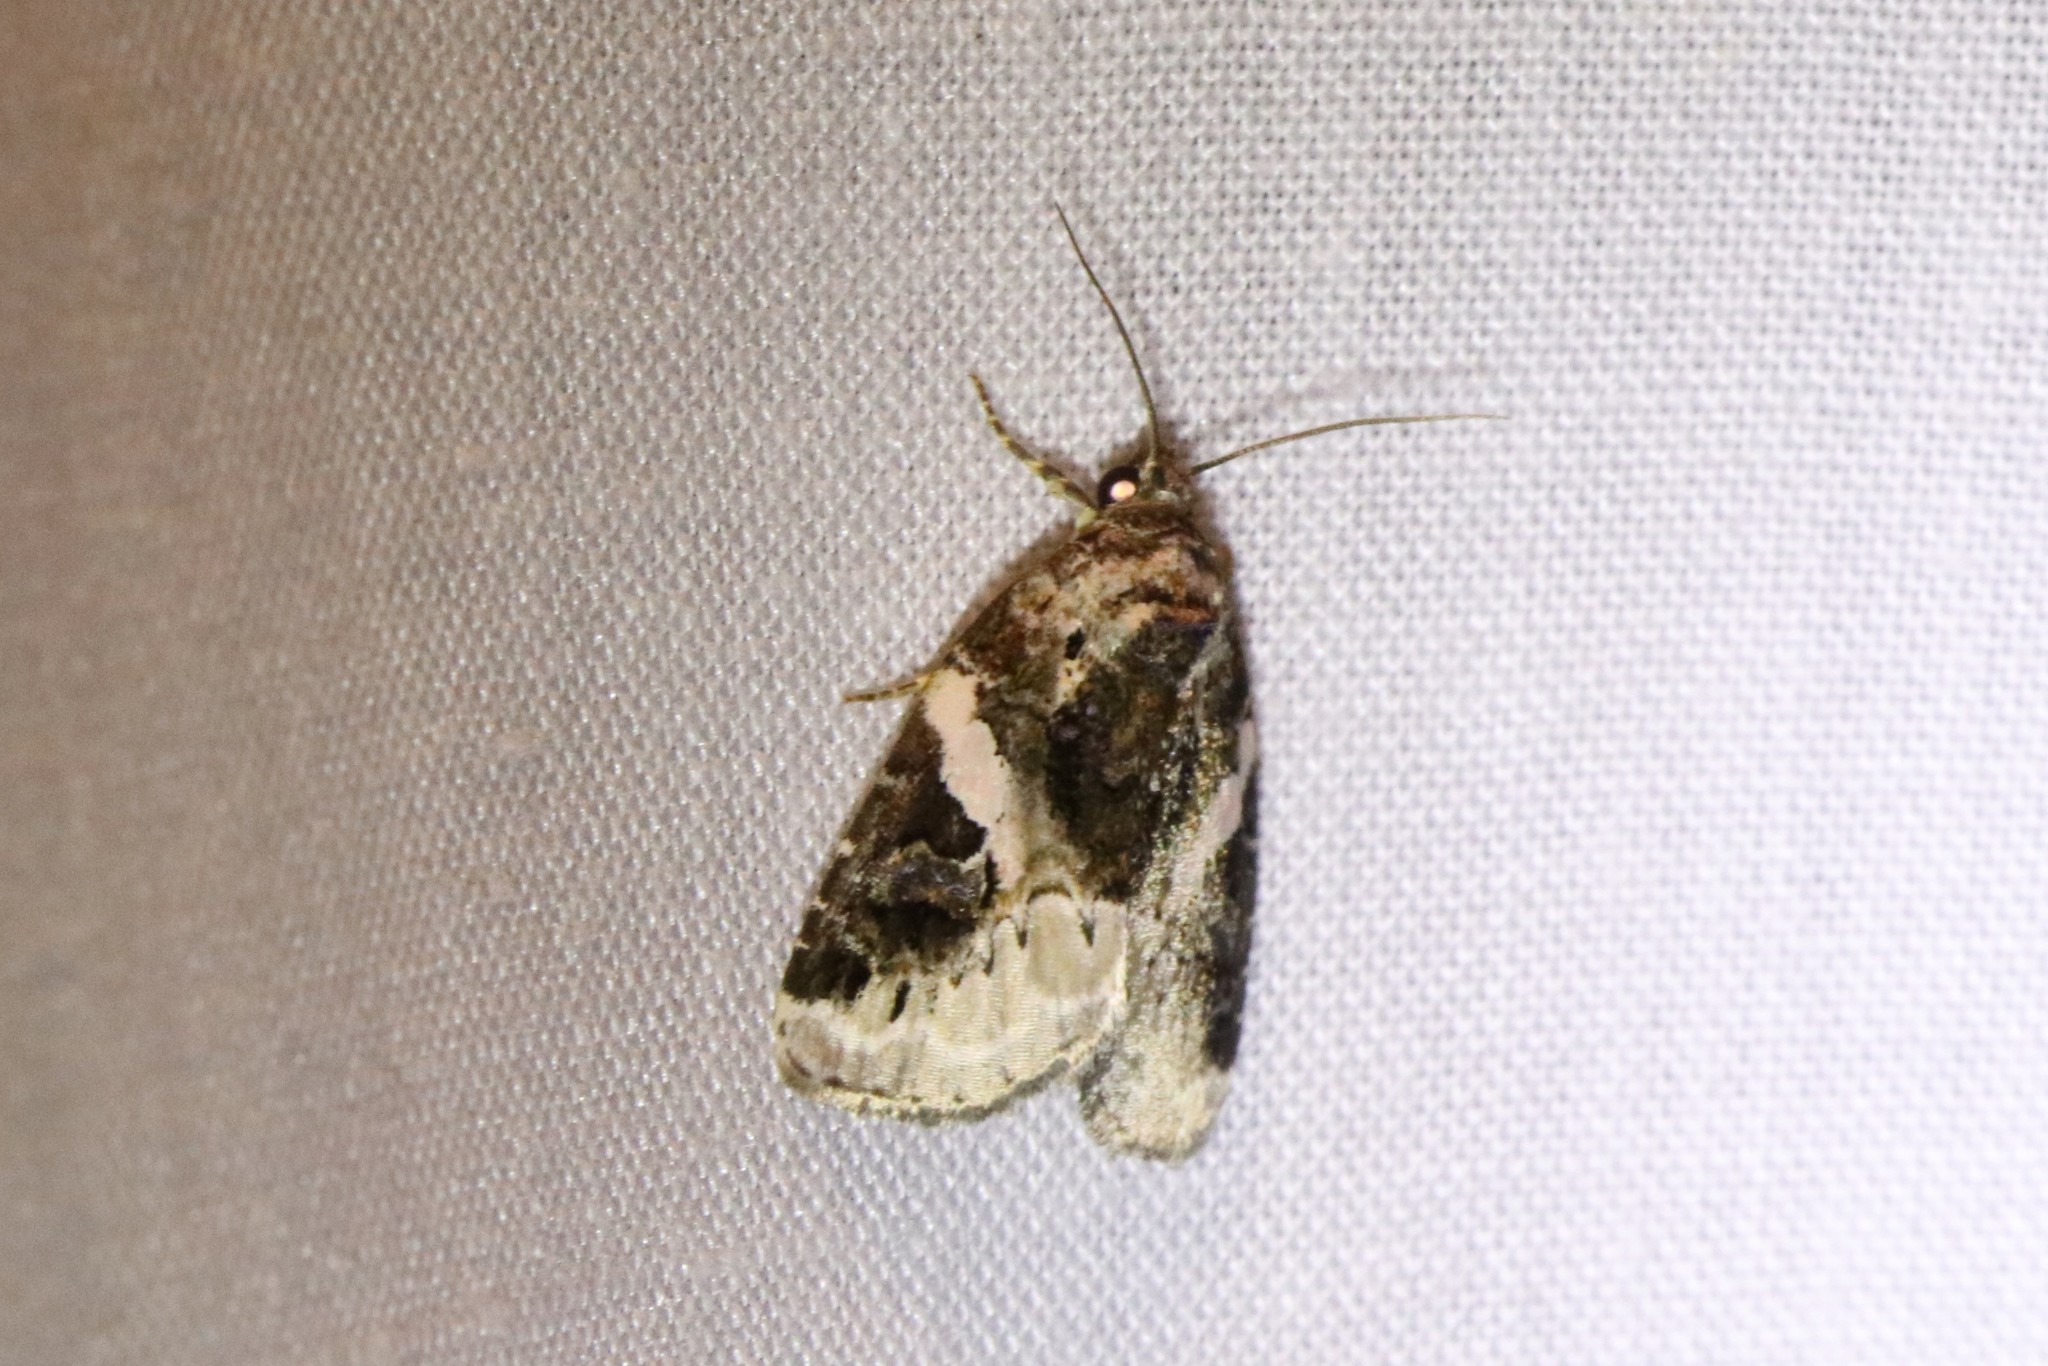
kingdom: Animalia
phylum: Arthropoda
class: Insecta
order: Lepidoptera
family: Noctuidae
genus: Pseudeustrotia
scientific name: Pseudeustrotia carneola
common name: Pink-barred lithacodia moth
